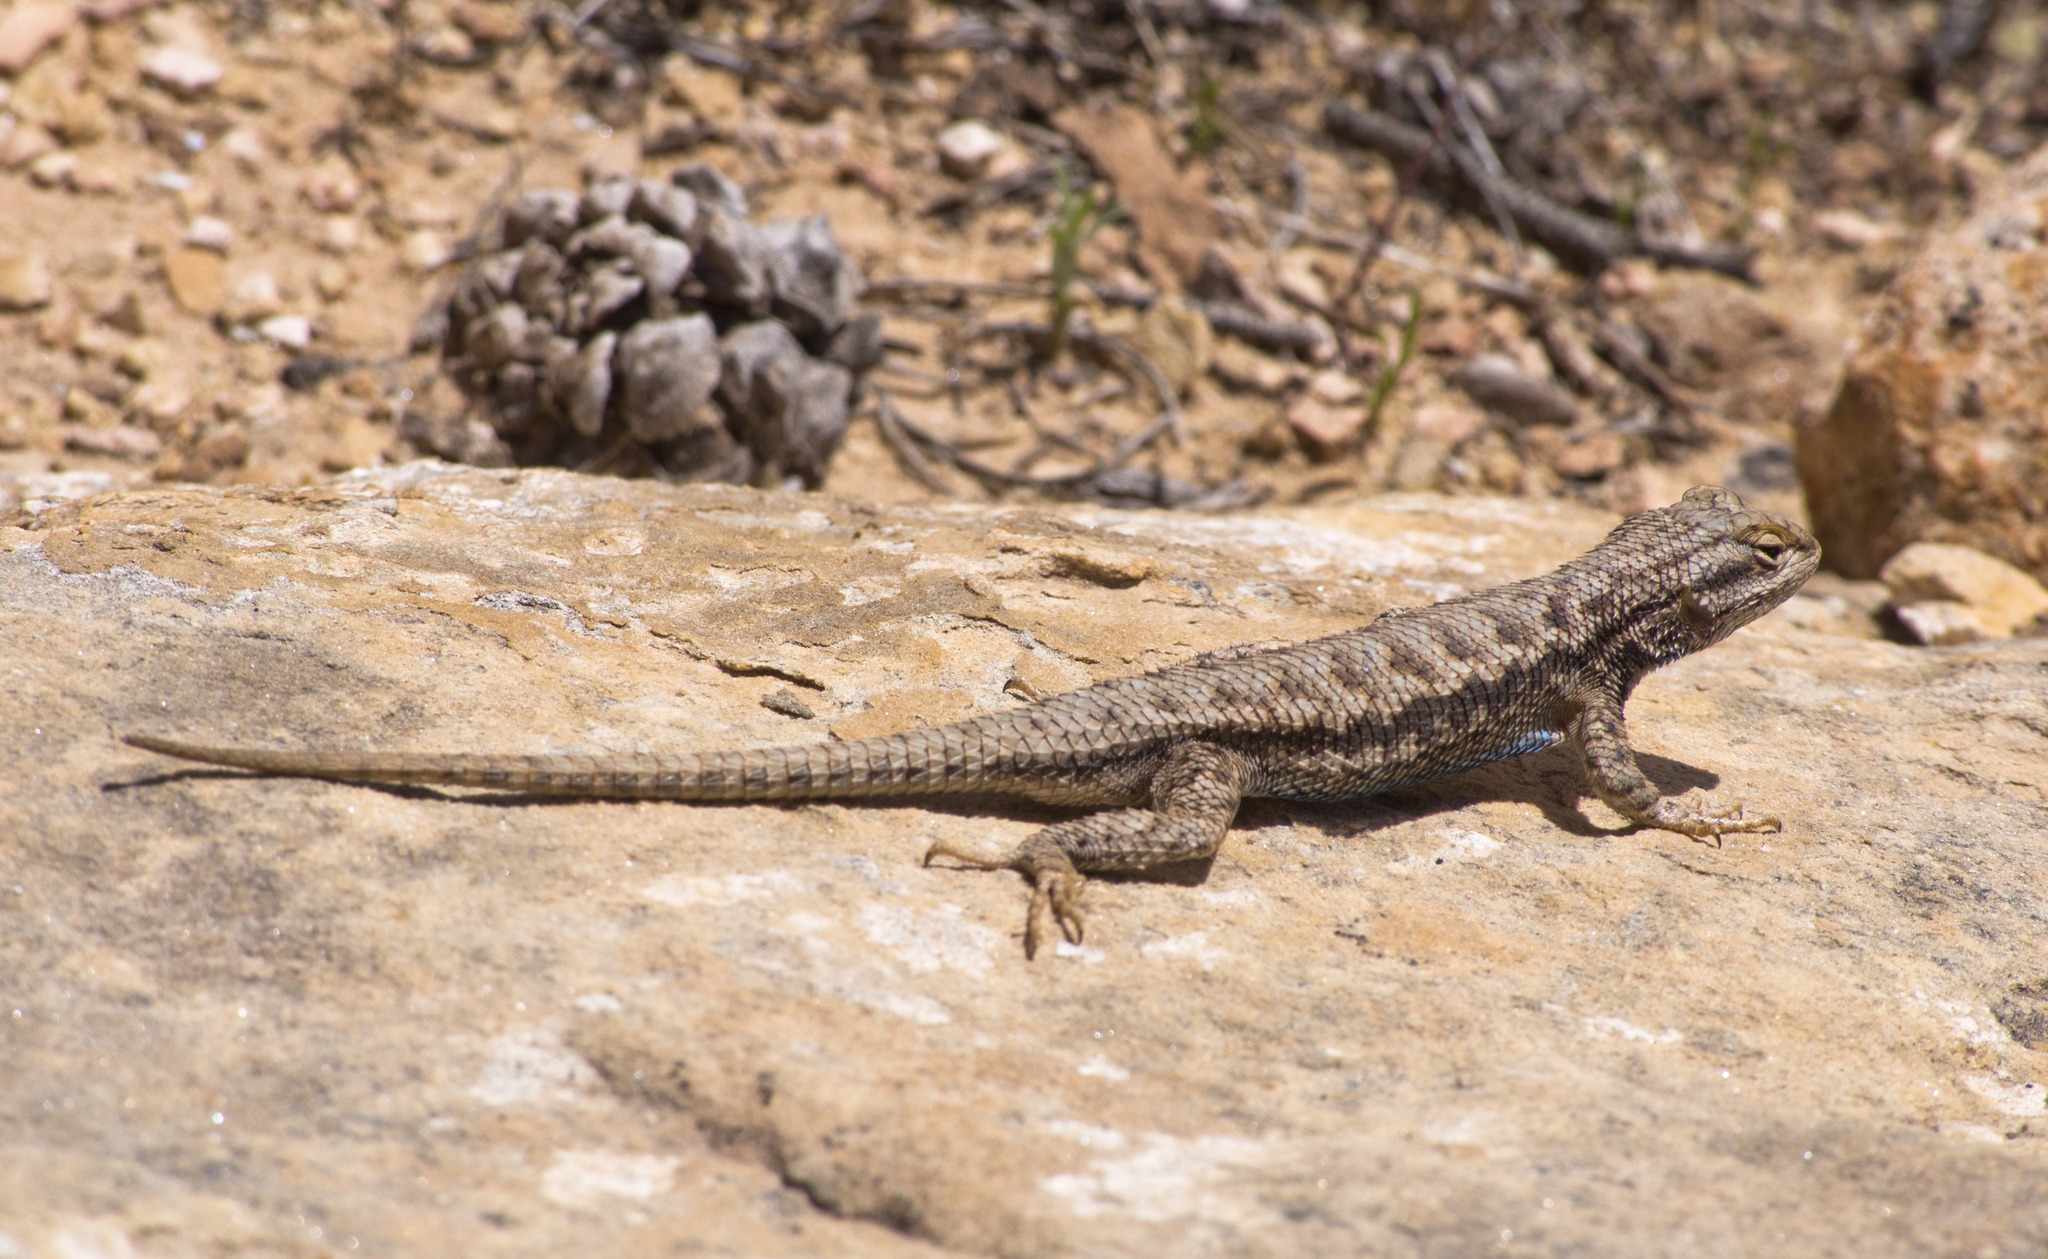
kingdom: Animalia
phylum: Chordata
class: Squamata
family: Phrynosomatidae
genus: Sceloporus
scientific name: Sceloporus tristichus
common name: Plateau fence lizard
